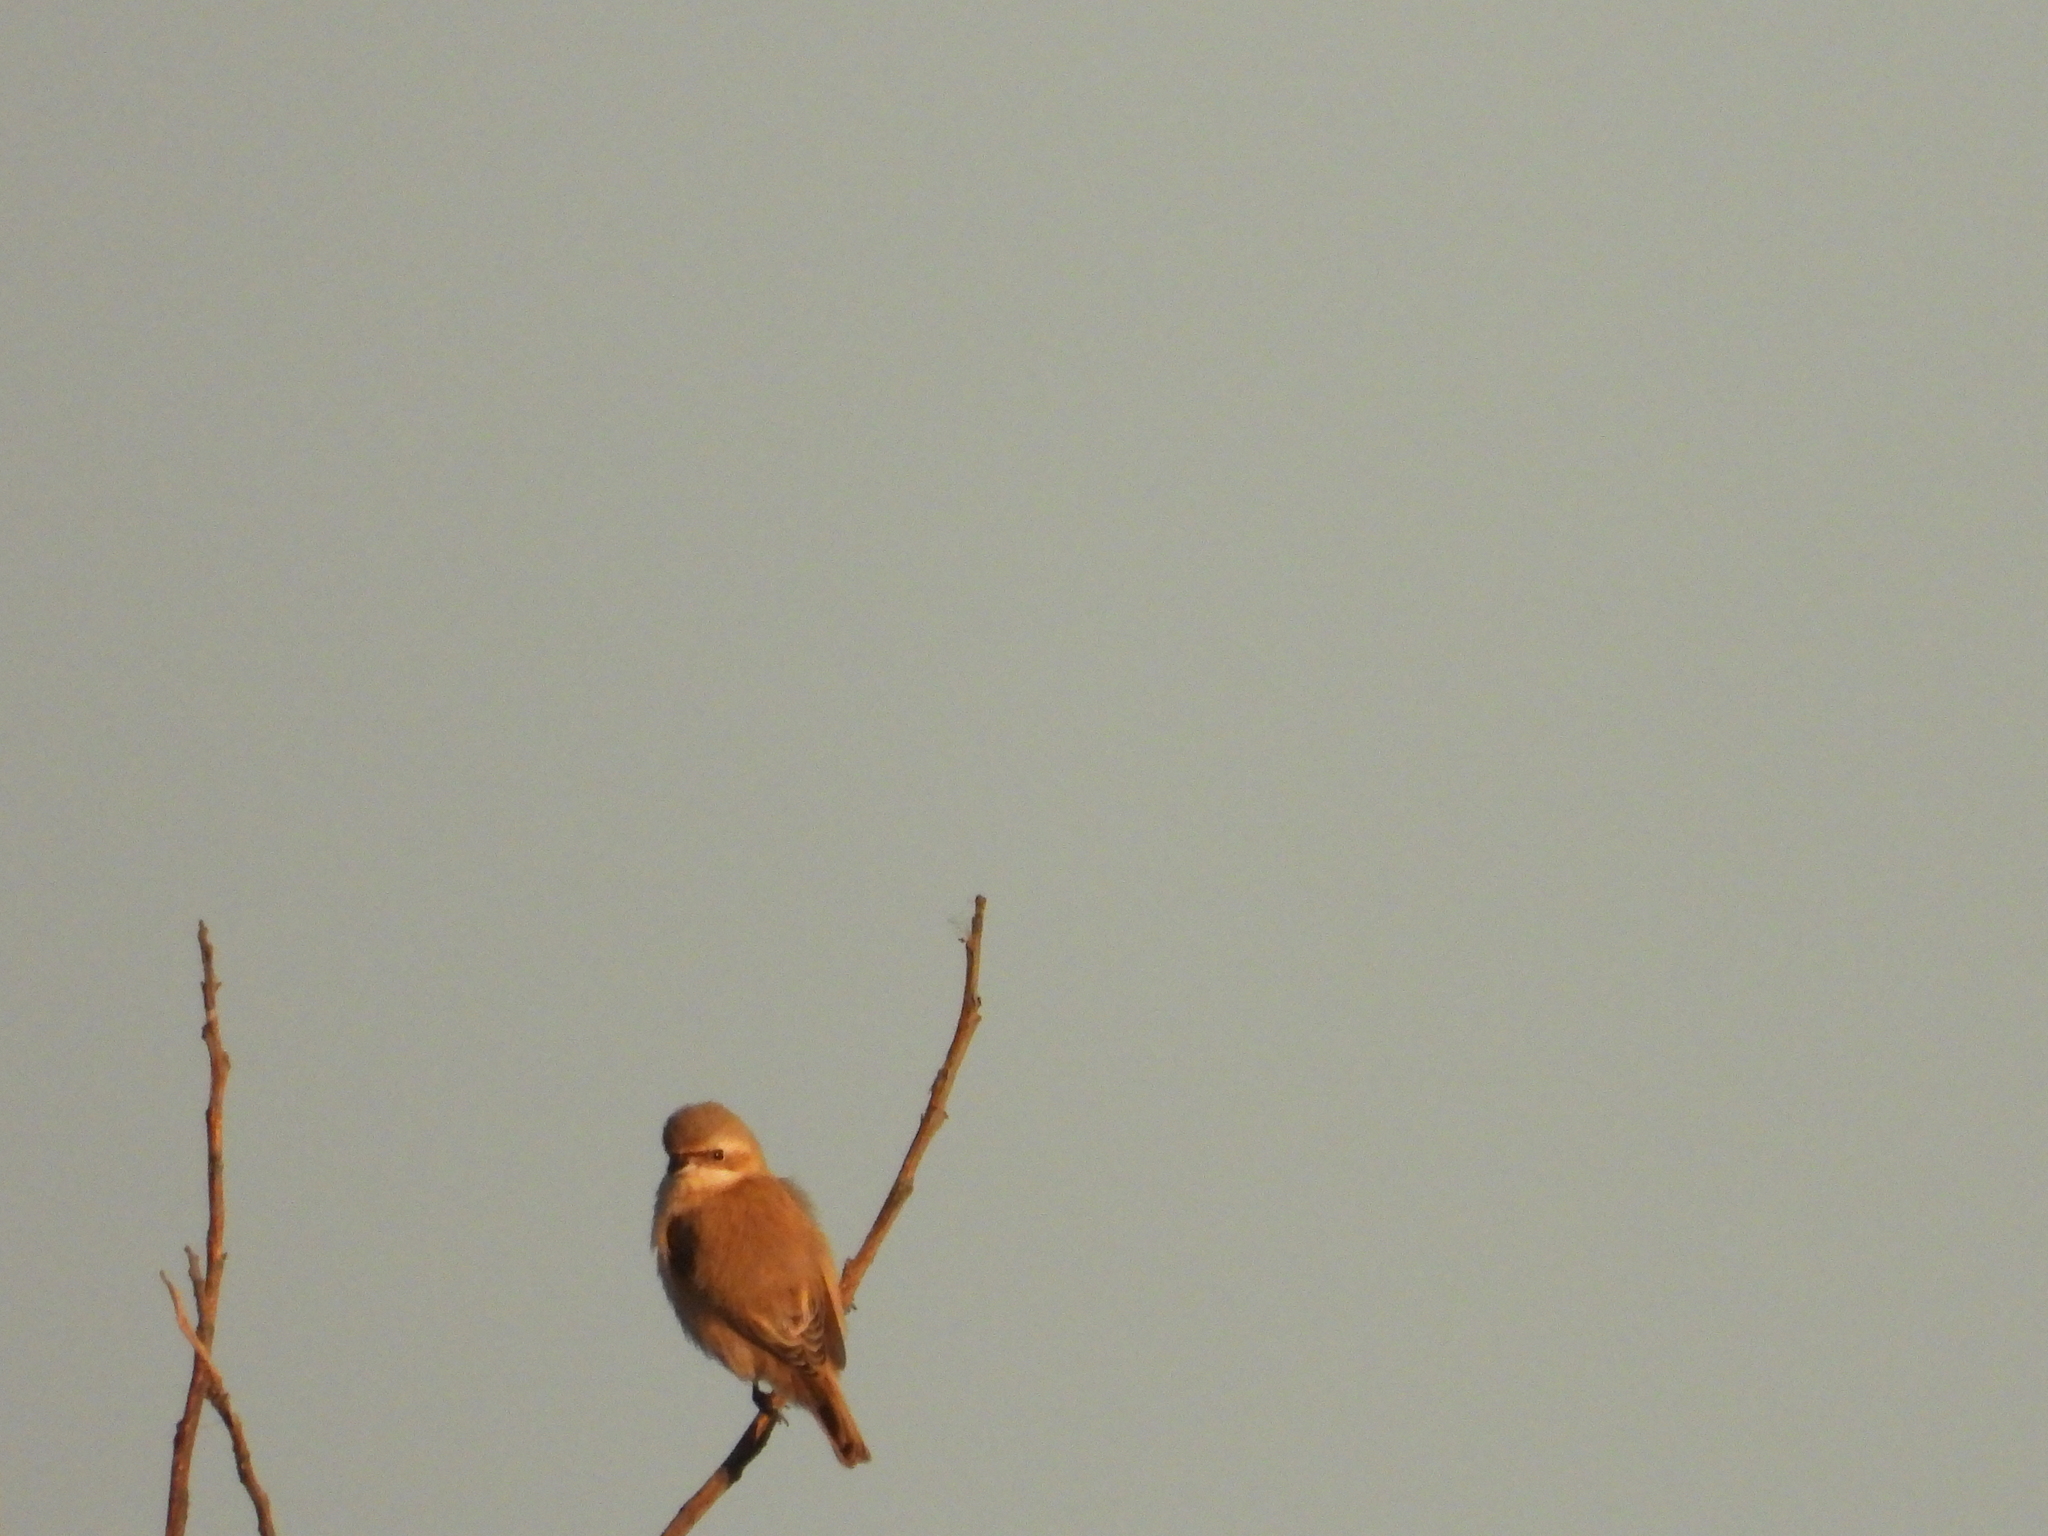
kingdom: Animalia
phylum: Chordata
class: Aves
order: Passeriformes
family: Remizidae
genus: Remiz
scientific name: Remiz consobrinus
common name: Chinese penduline tit
